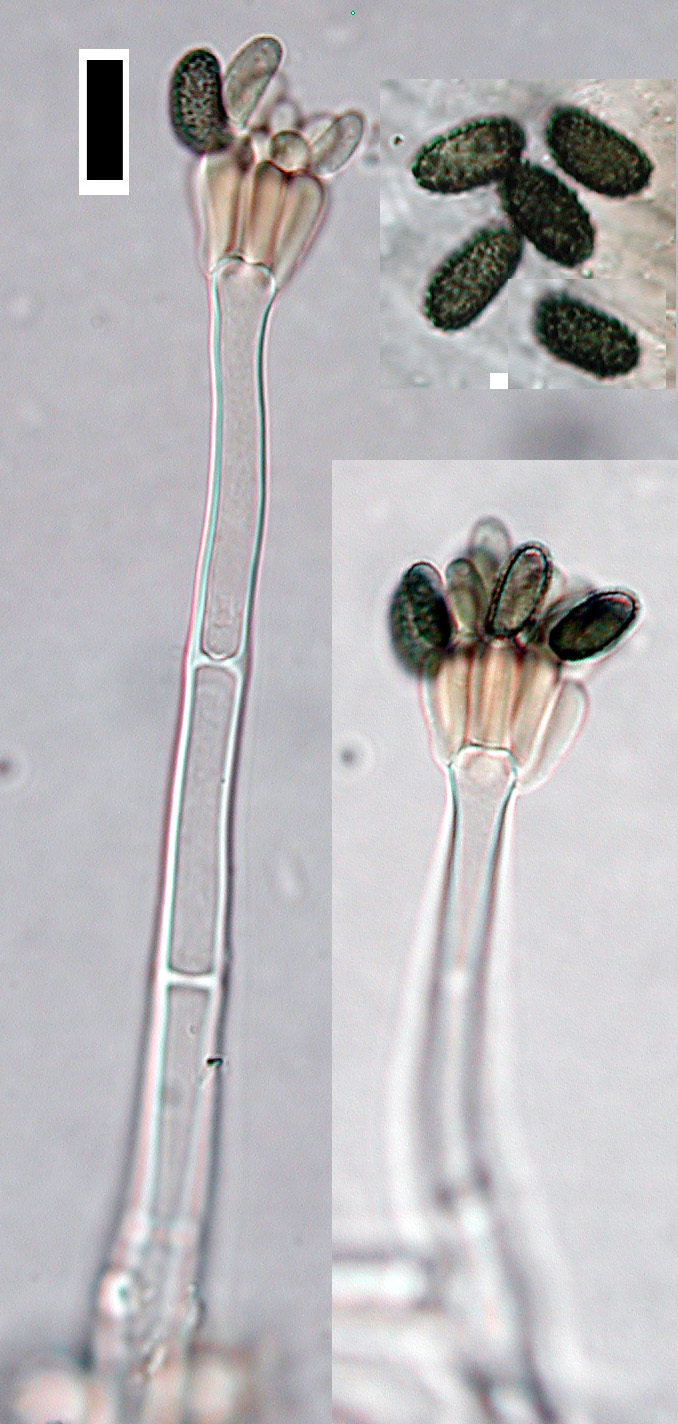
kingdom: Fungi
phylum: Ascomycota
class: Sordariomycetes
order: Hypocreales
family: Stachybotryaceae
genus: Memnoniella
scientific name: Memnoniella dichroa
